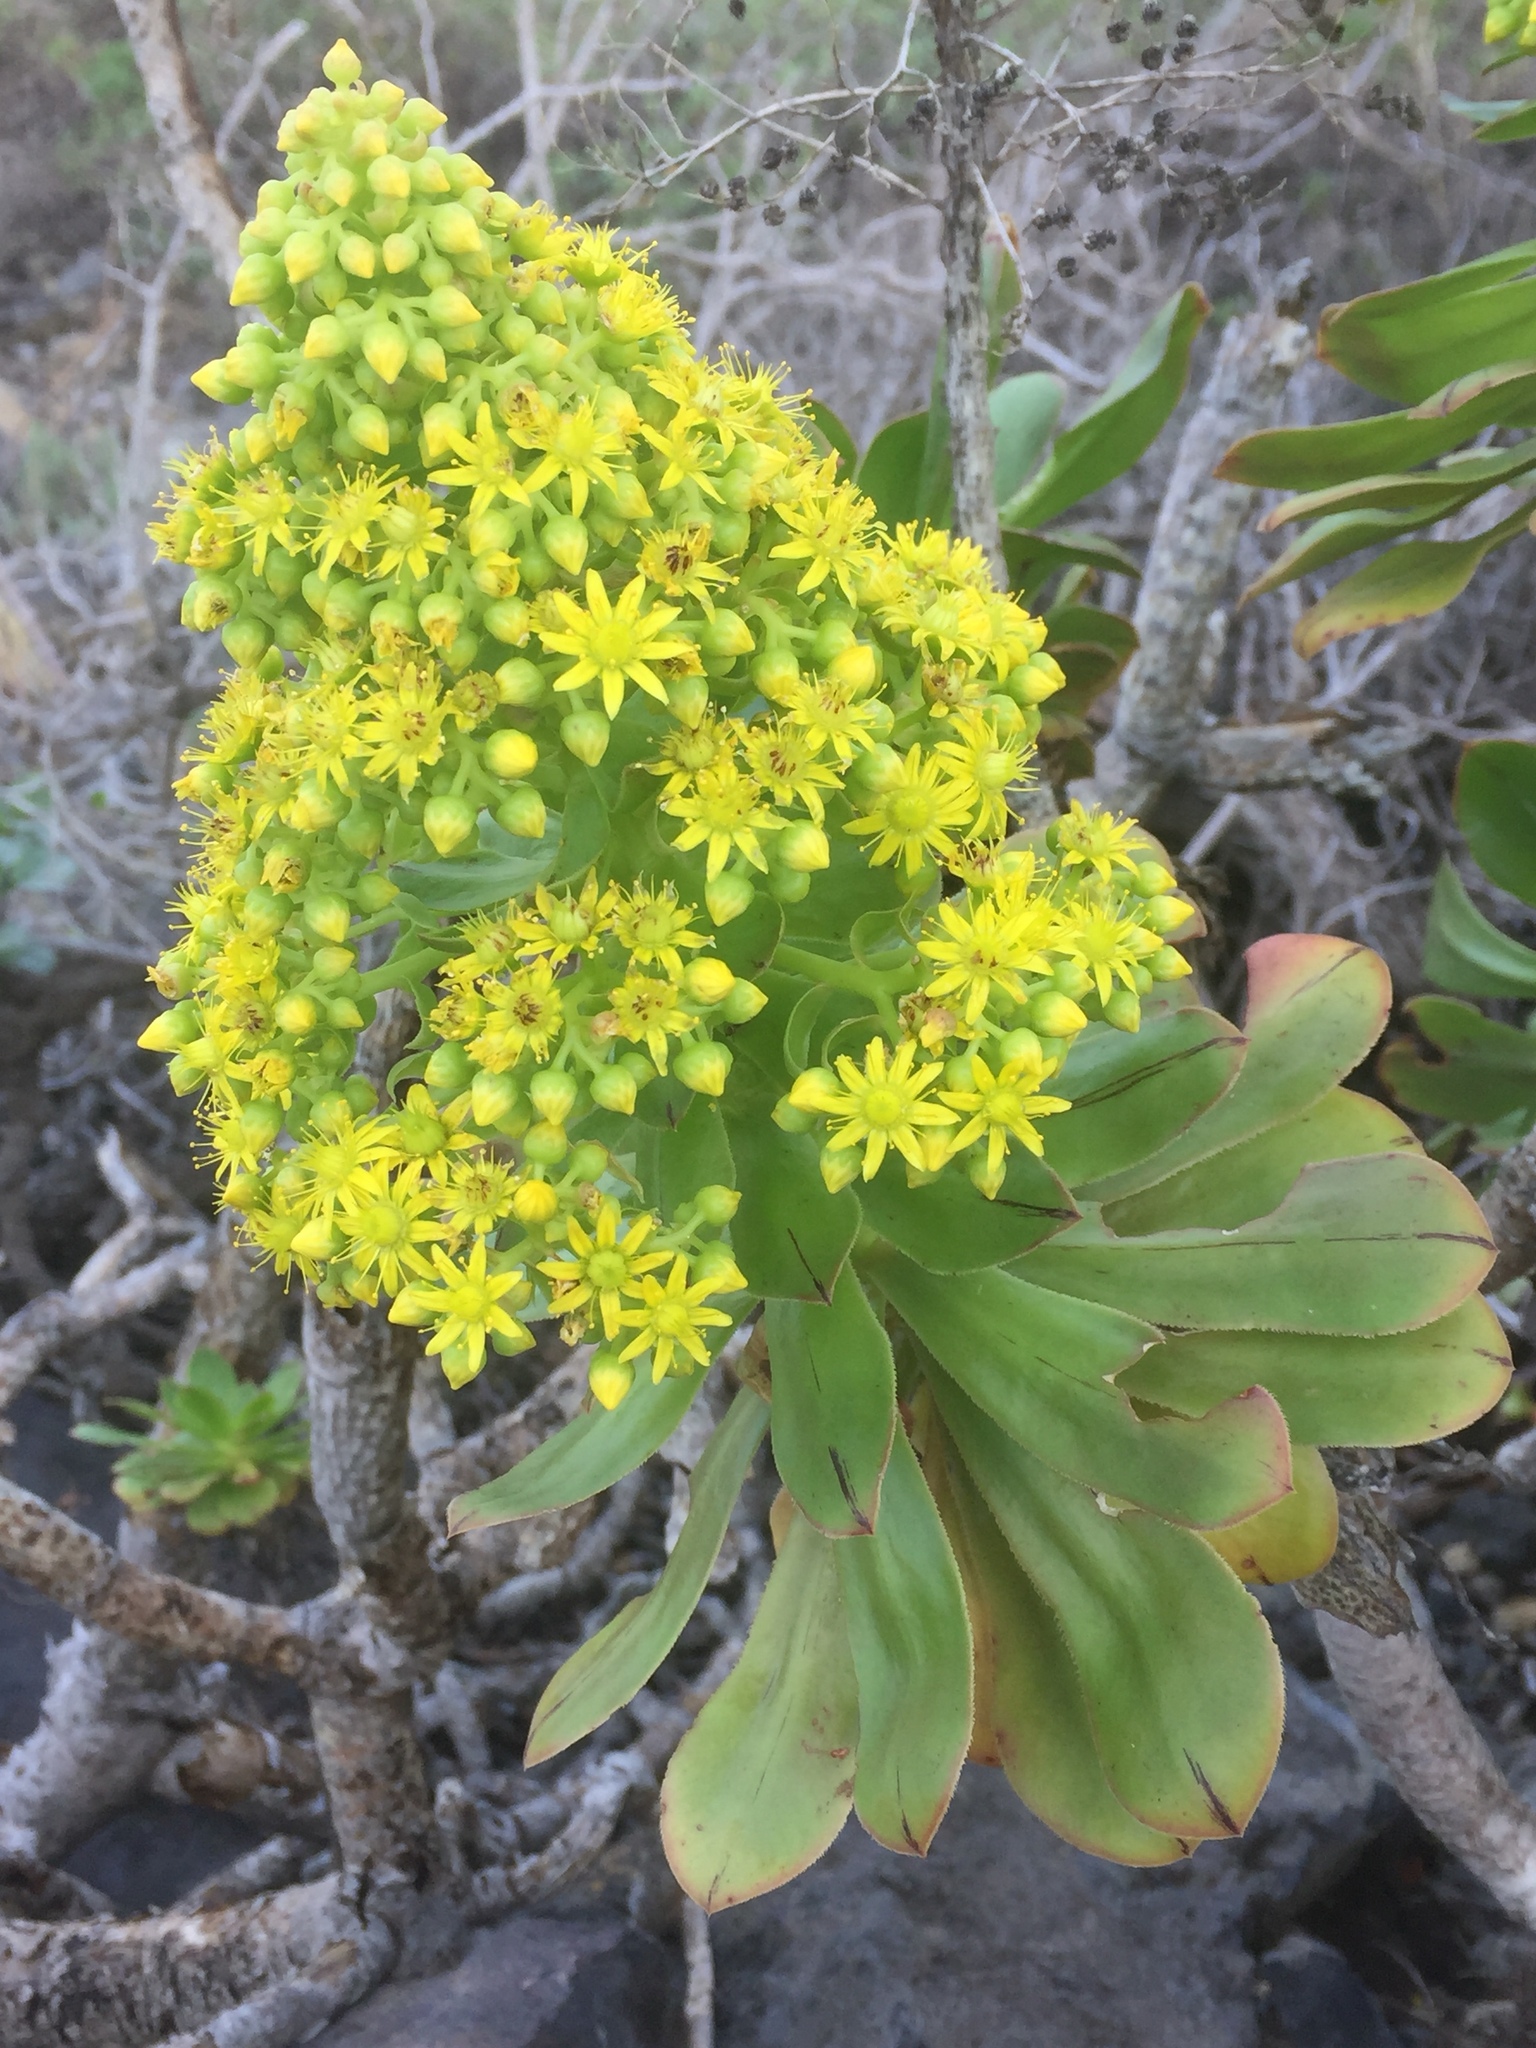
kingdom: Plantae
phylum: Tracheophyta
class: Magnoliopsida
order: Saxifragales
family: Crassulaceae
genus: Aeonium
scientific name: Aeonium arboreum
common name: Tree aeonium
